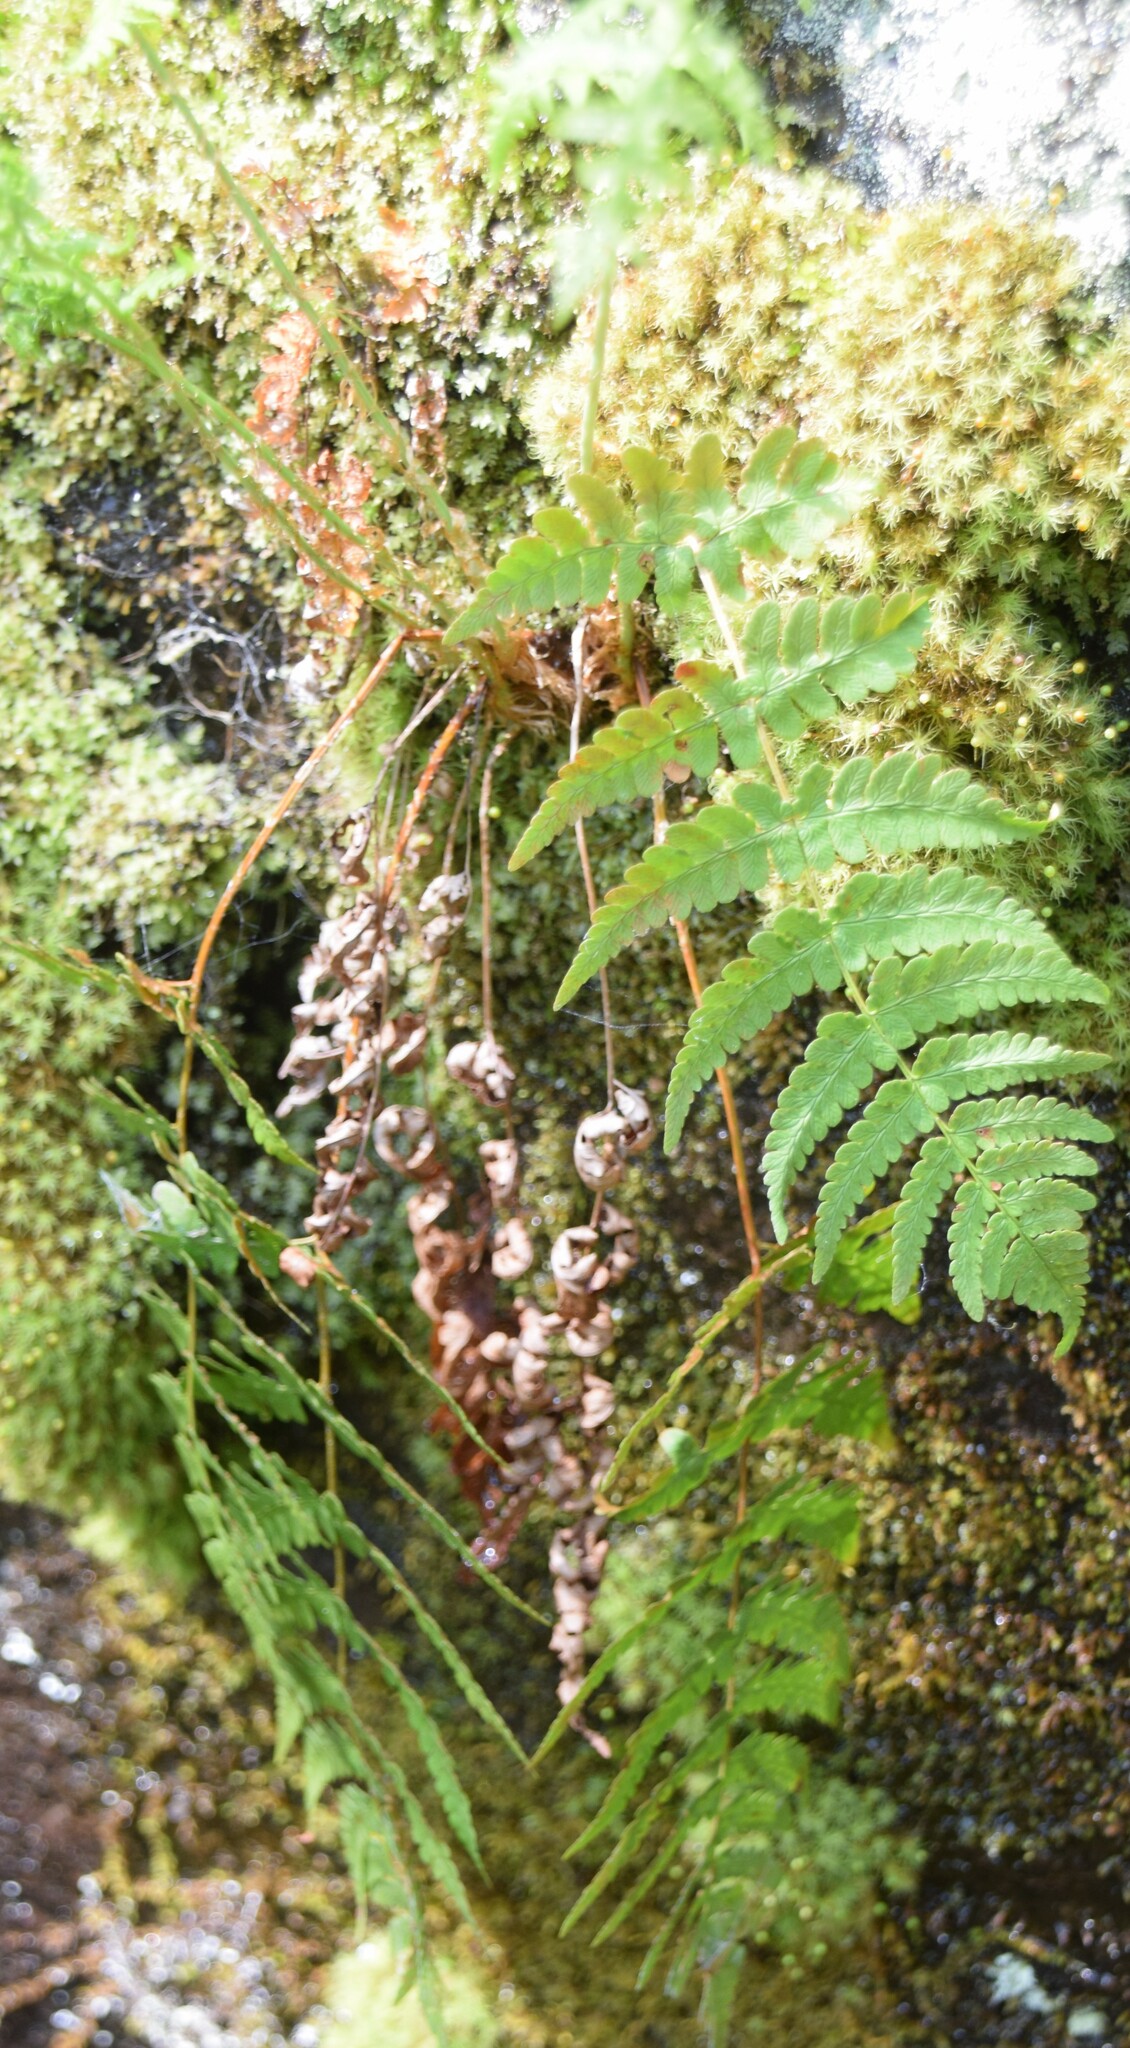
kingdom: Plantae
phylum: Tracheophyta
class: Polypodiopsida
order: Polypodiales
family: Dryopteridaceae
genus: Dryopteris
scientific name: Dryopteris marginalis
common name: Marginal wood fern
